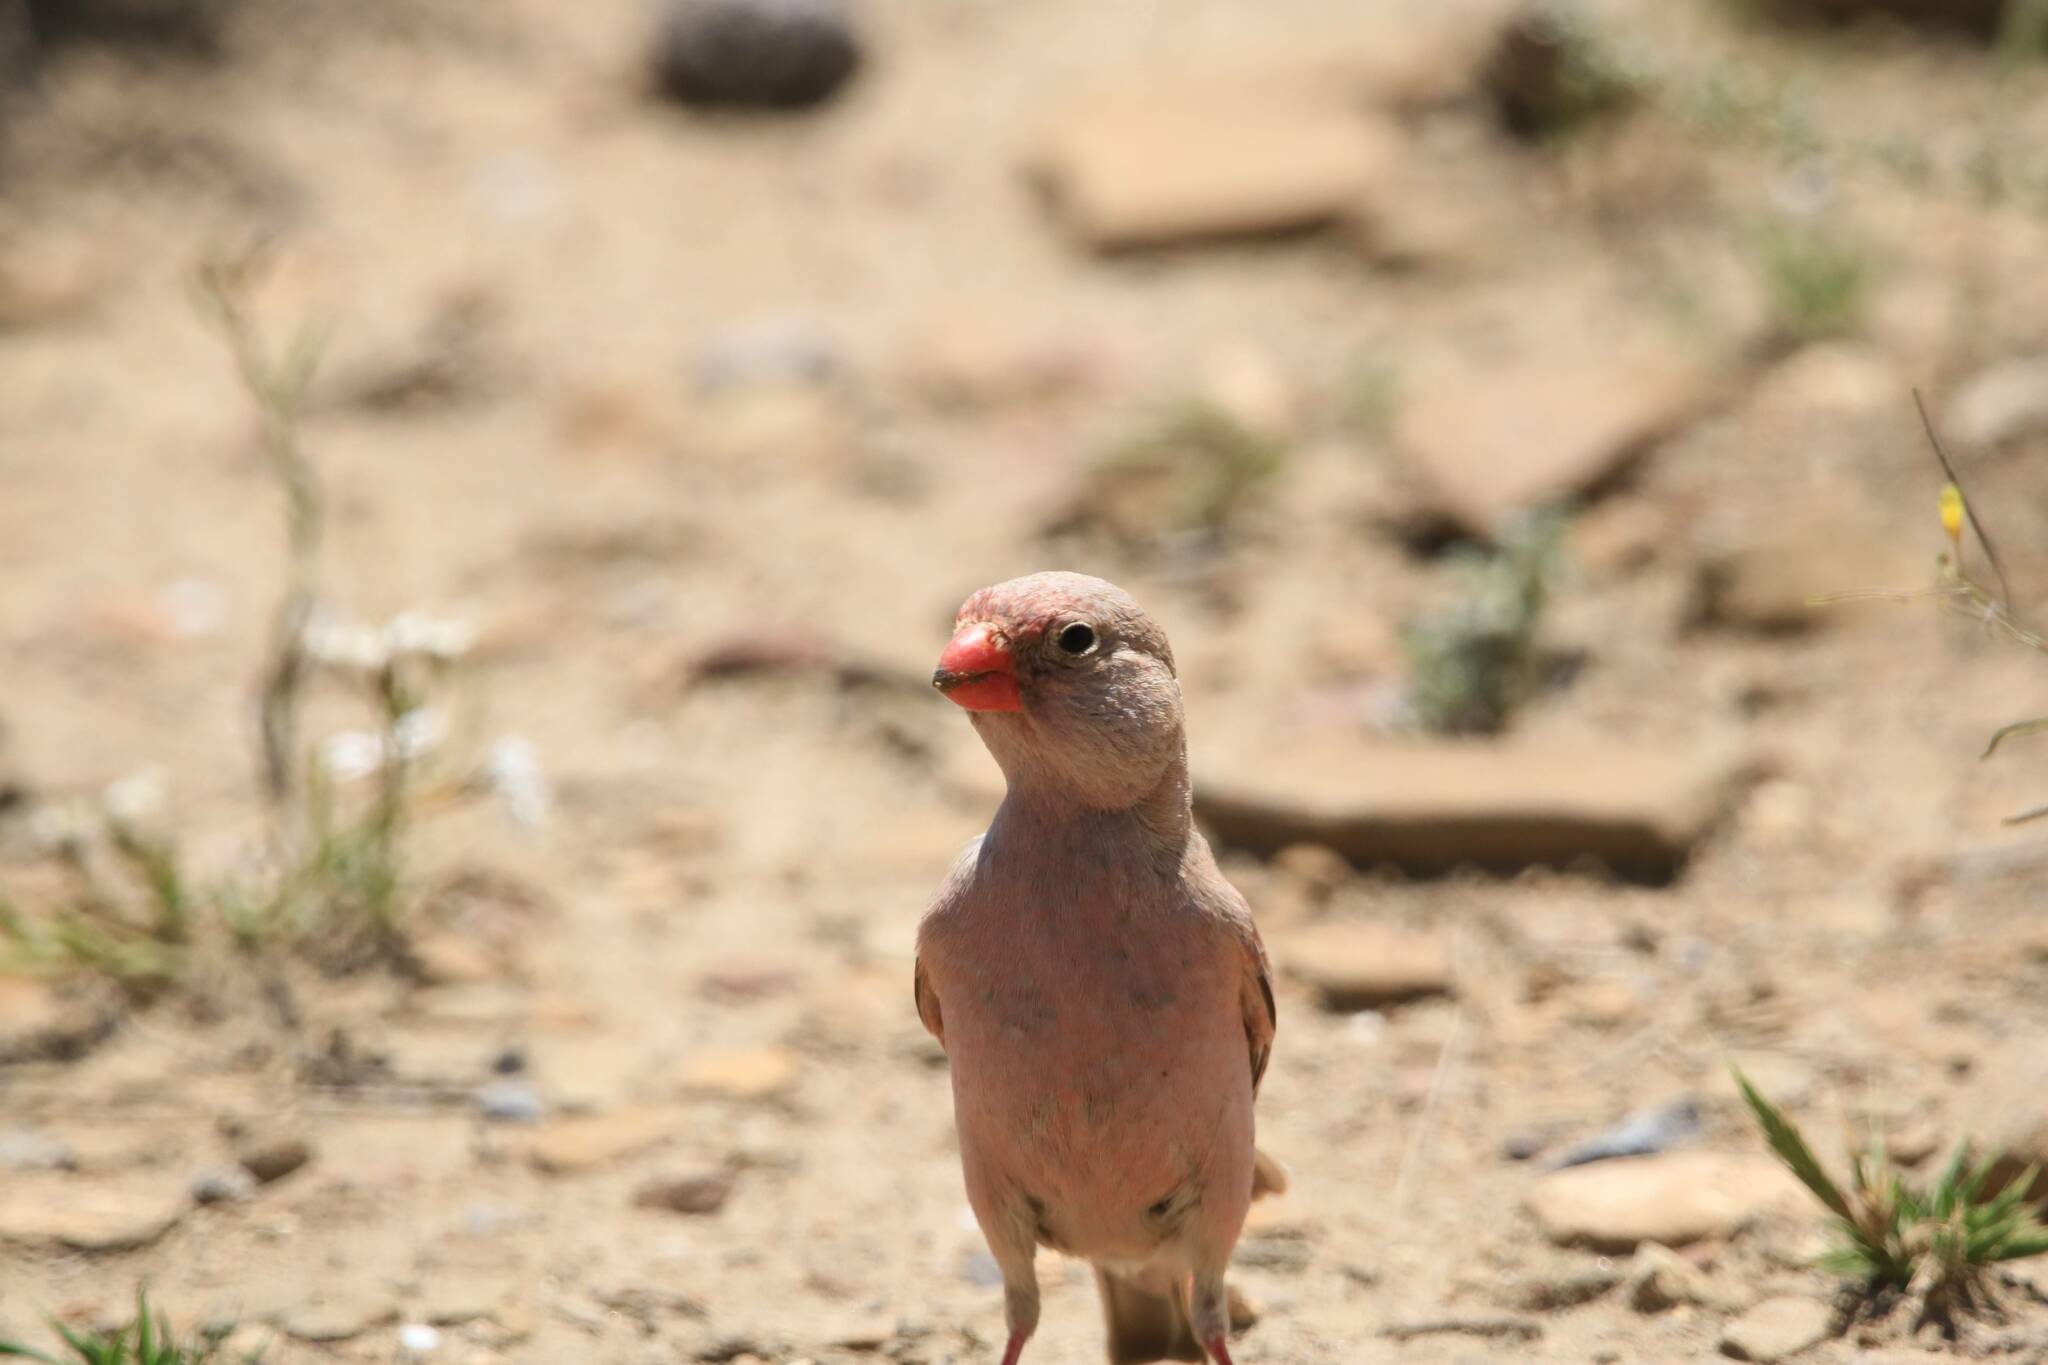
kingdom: Animalia
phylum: Chordata
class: Aves
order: Passeriformes
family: Fringillidae
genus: Bucanetes
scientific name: Bucanetes githagineus
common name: Trumpeter finch
